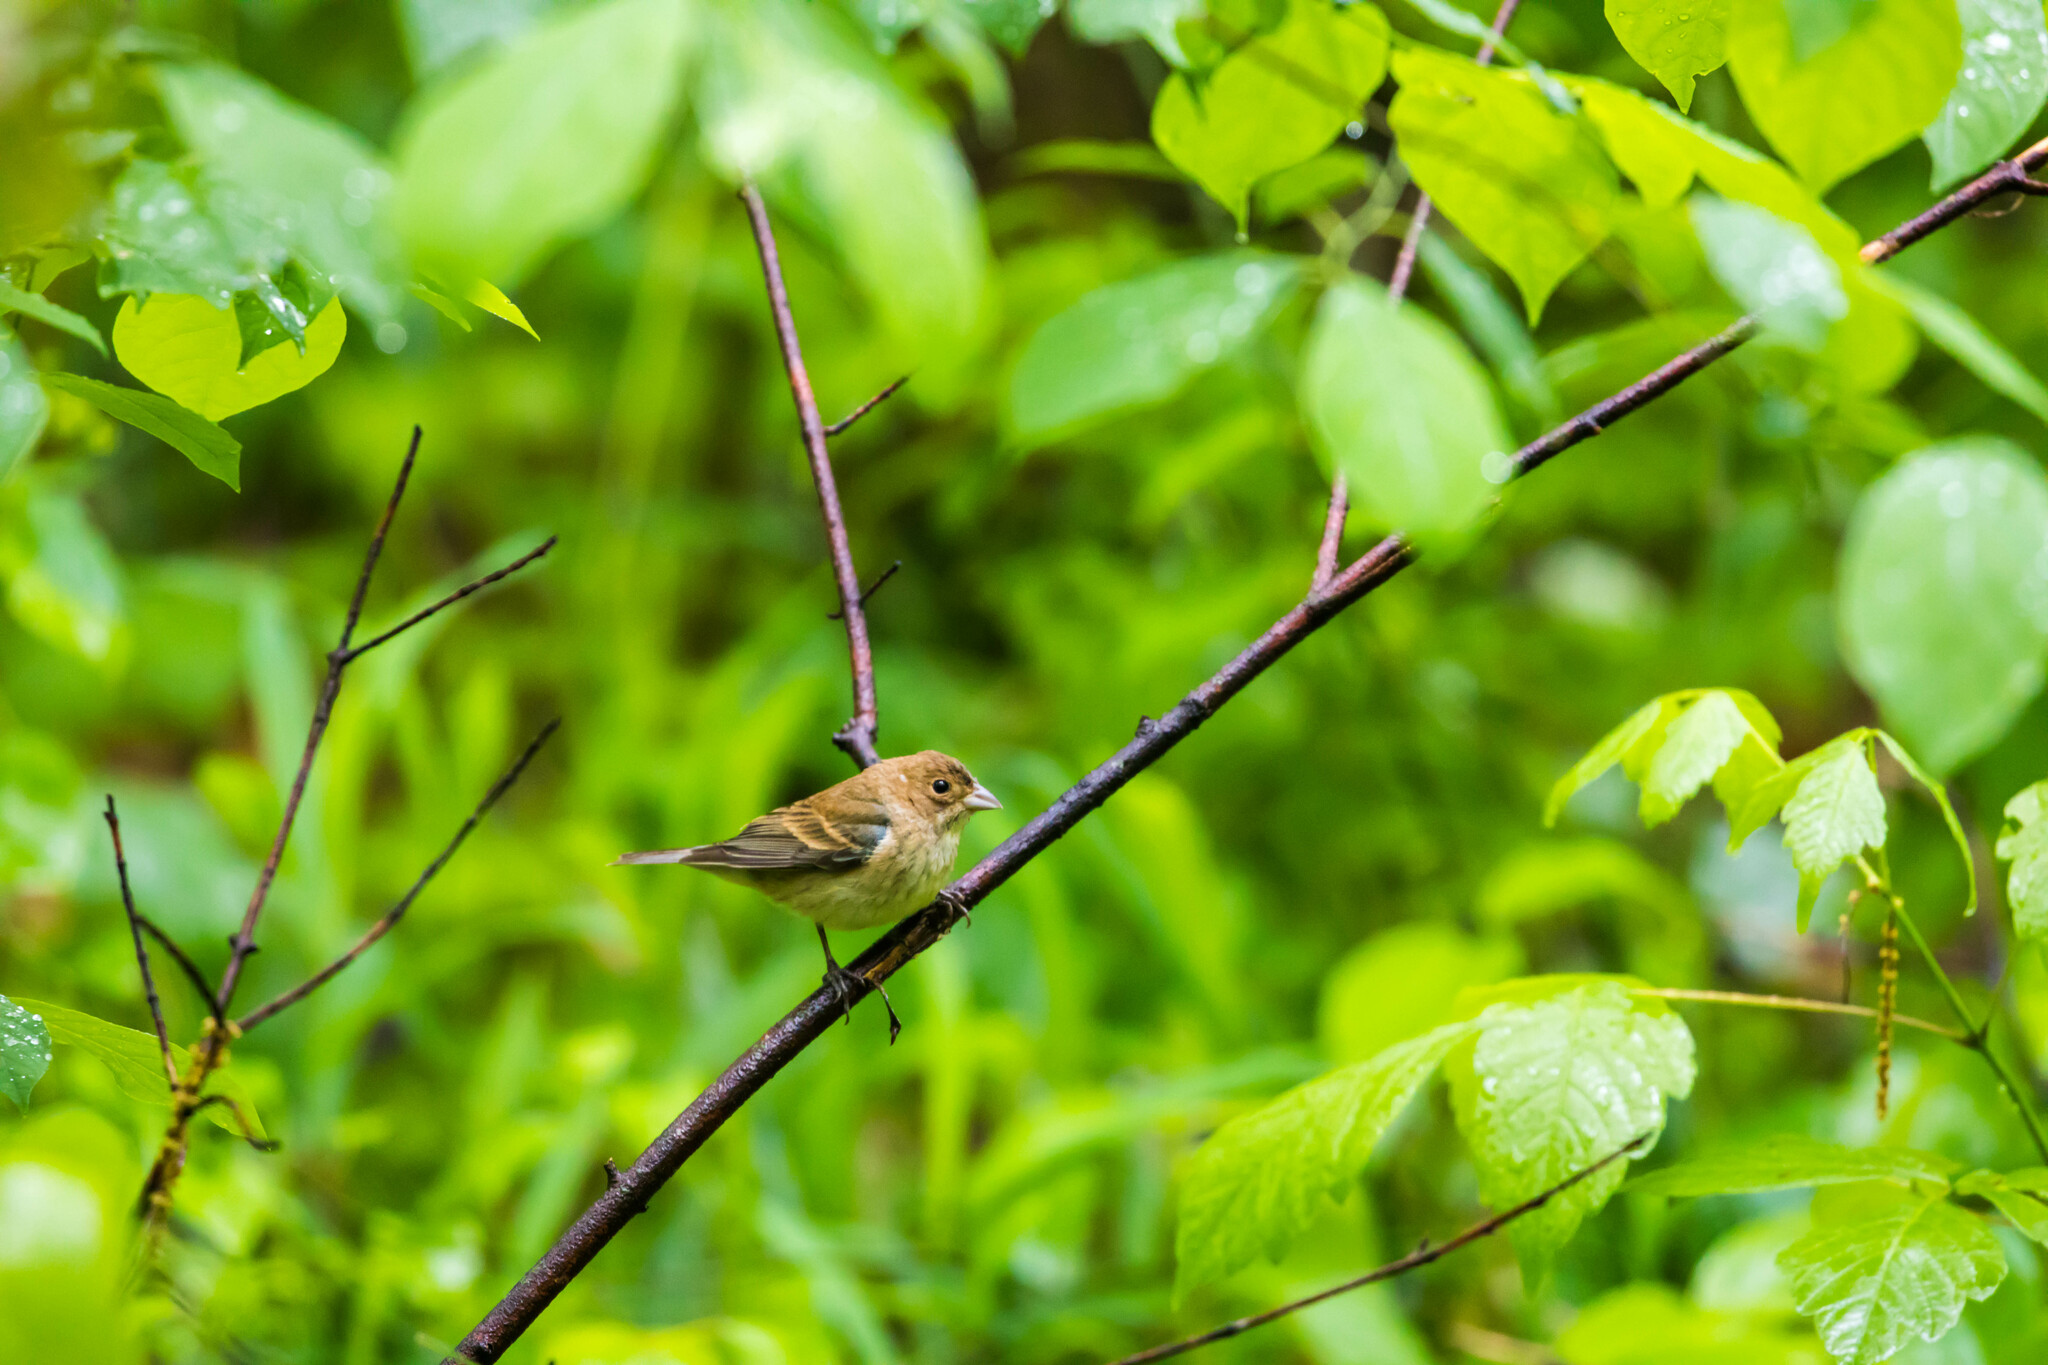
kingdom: Animalia
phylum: Chordata
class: Aves
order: Passeriformes
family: Cardinalidae
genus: Passerina
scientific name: Passerina cyanea
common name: Indigo bunting
